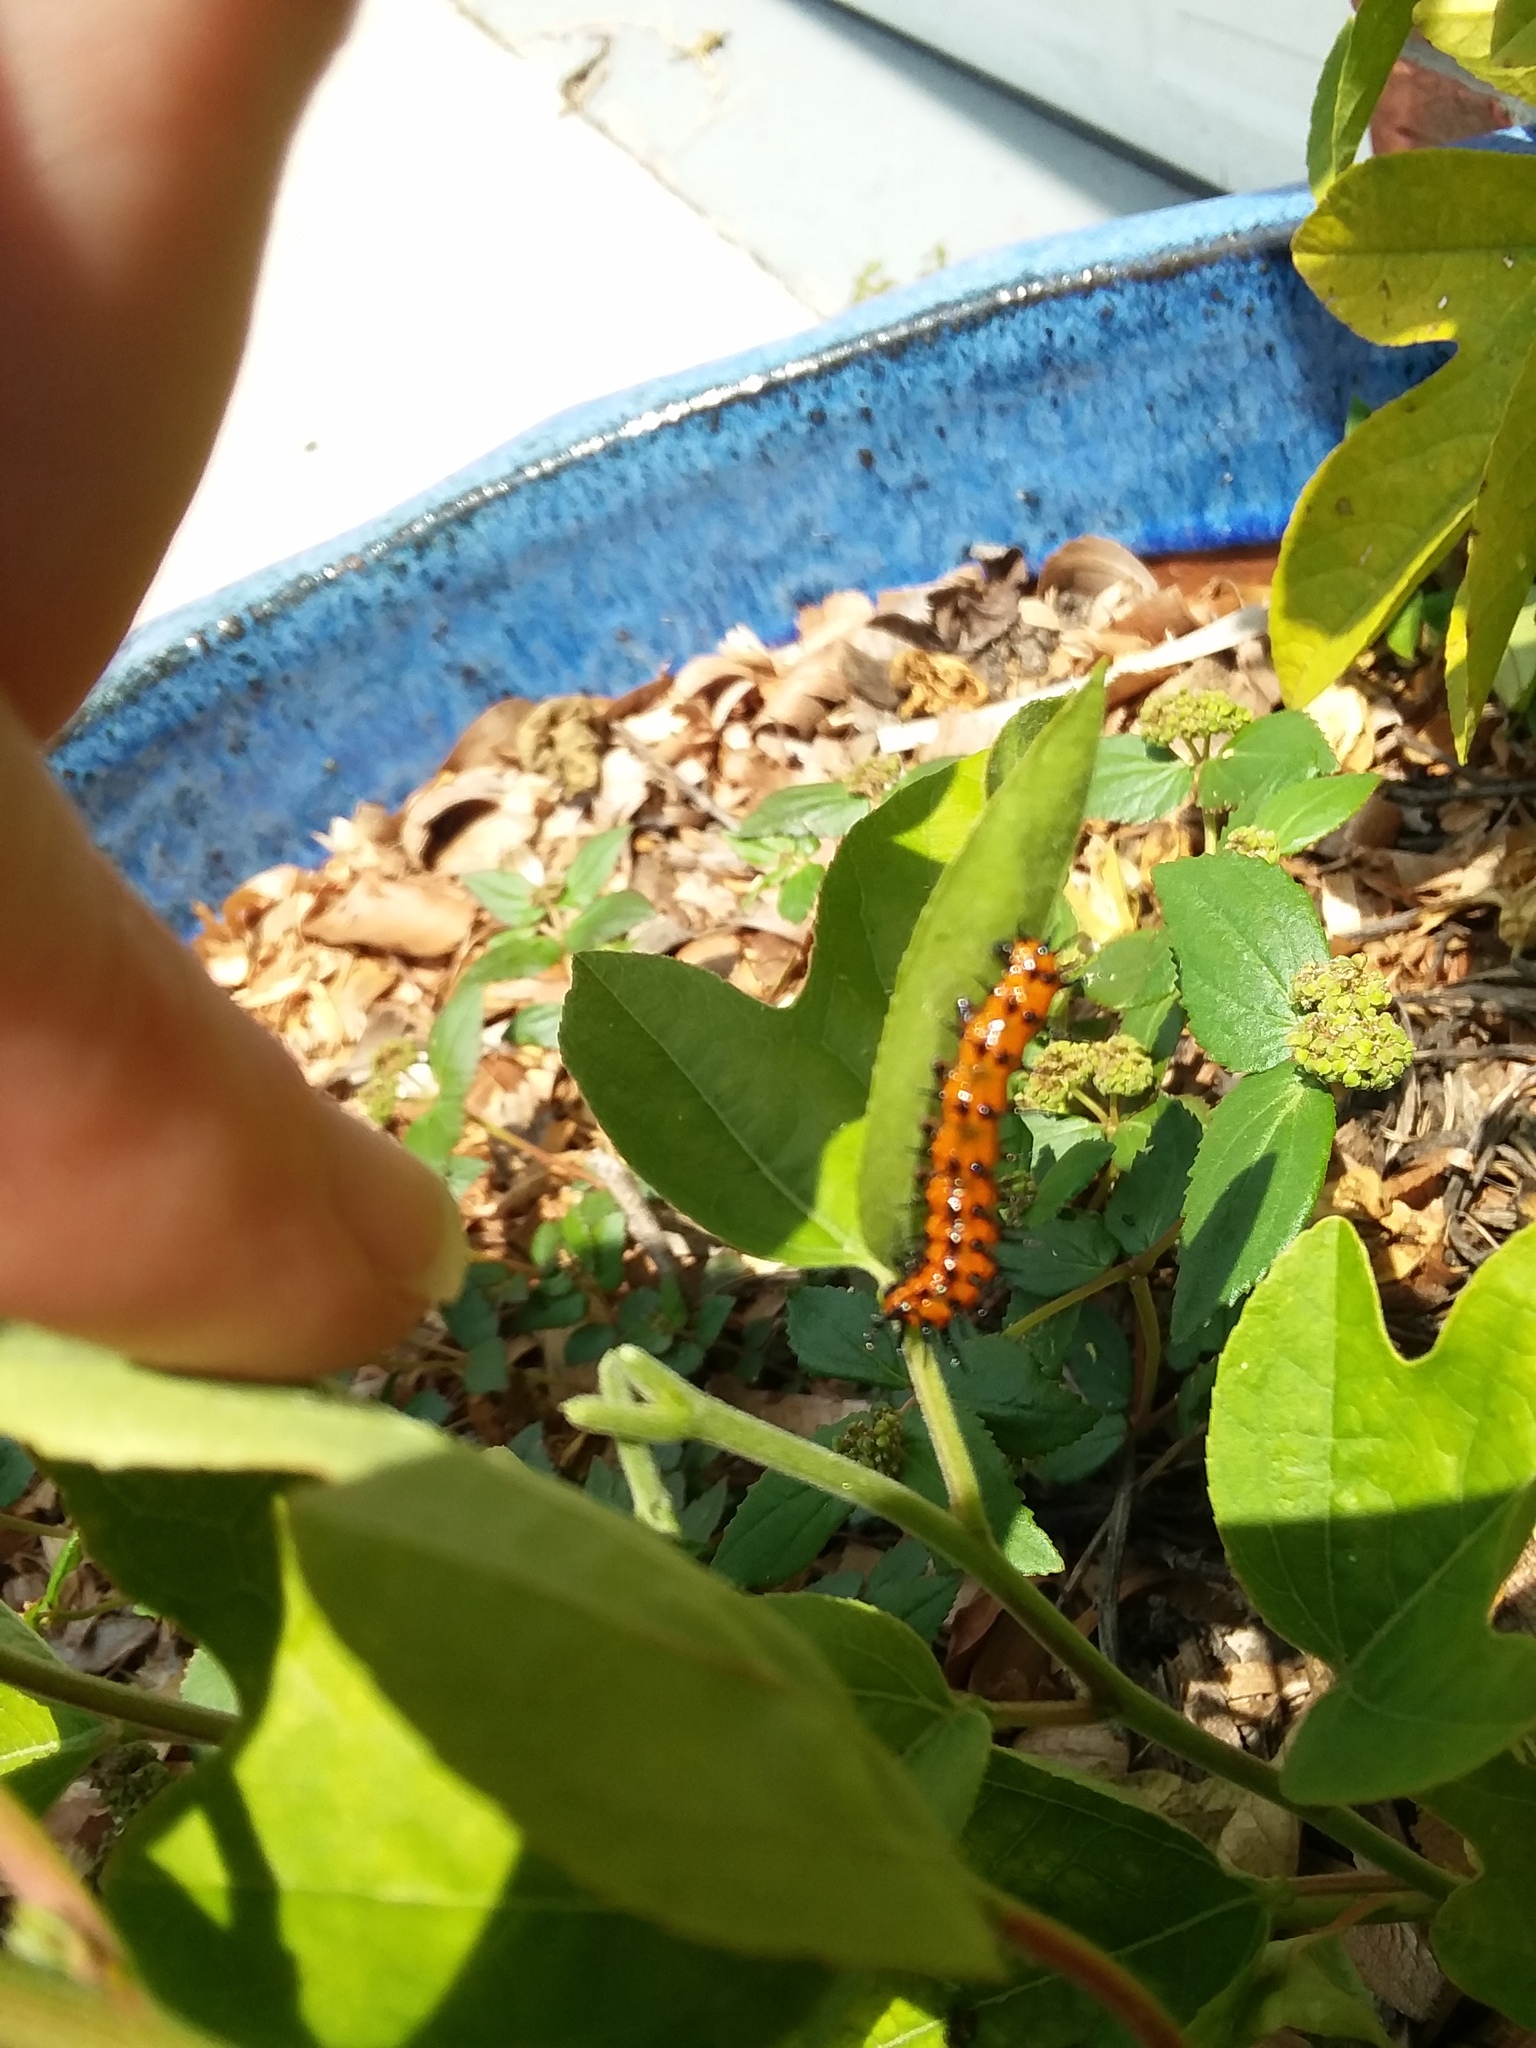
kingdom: Animalia
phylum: Arthropoda
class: Insecta
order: Lepidoptera
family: Nymphalidae
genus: Dione
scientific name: Dione vanillae
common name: Gulf fritillary
